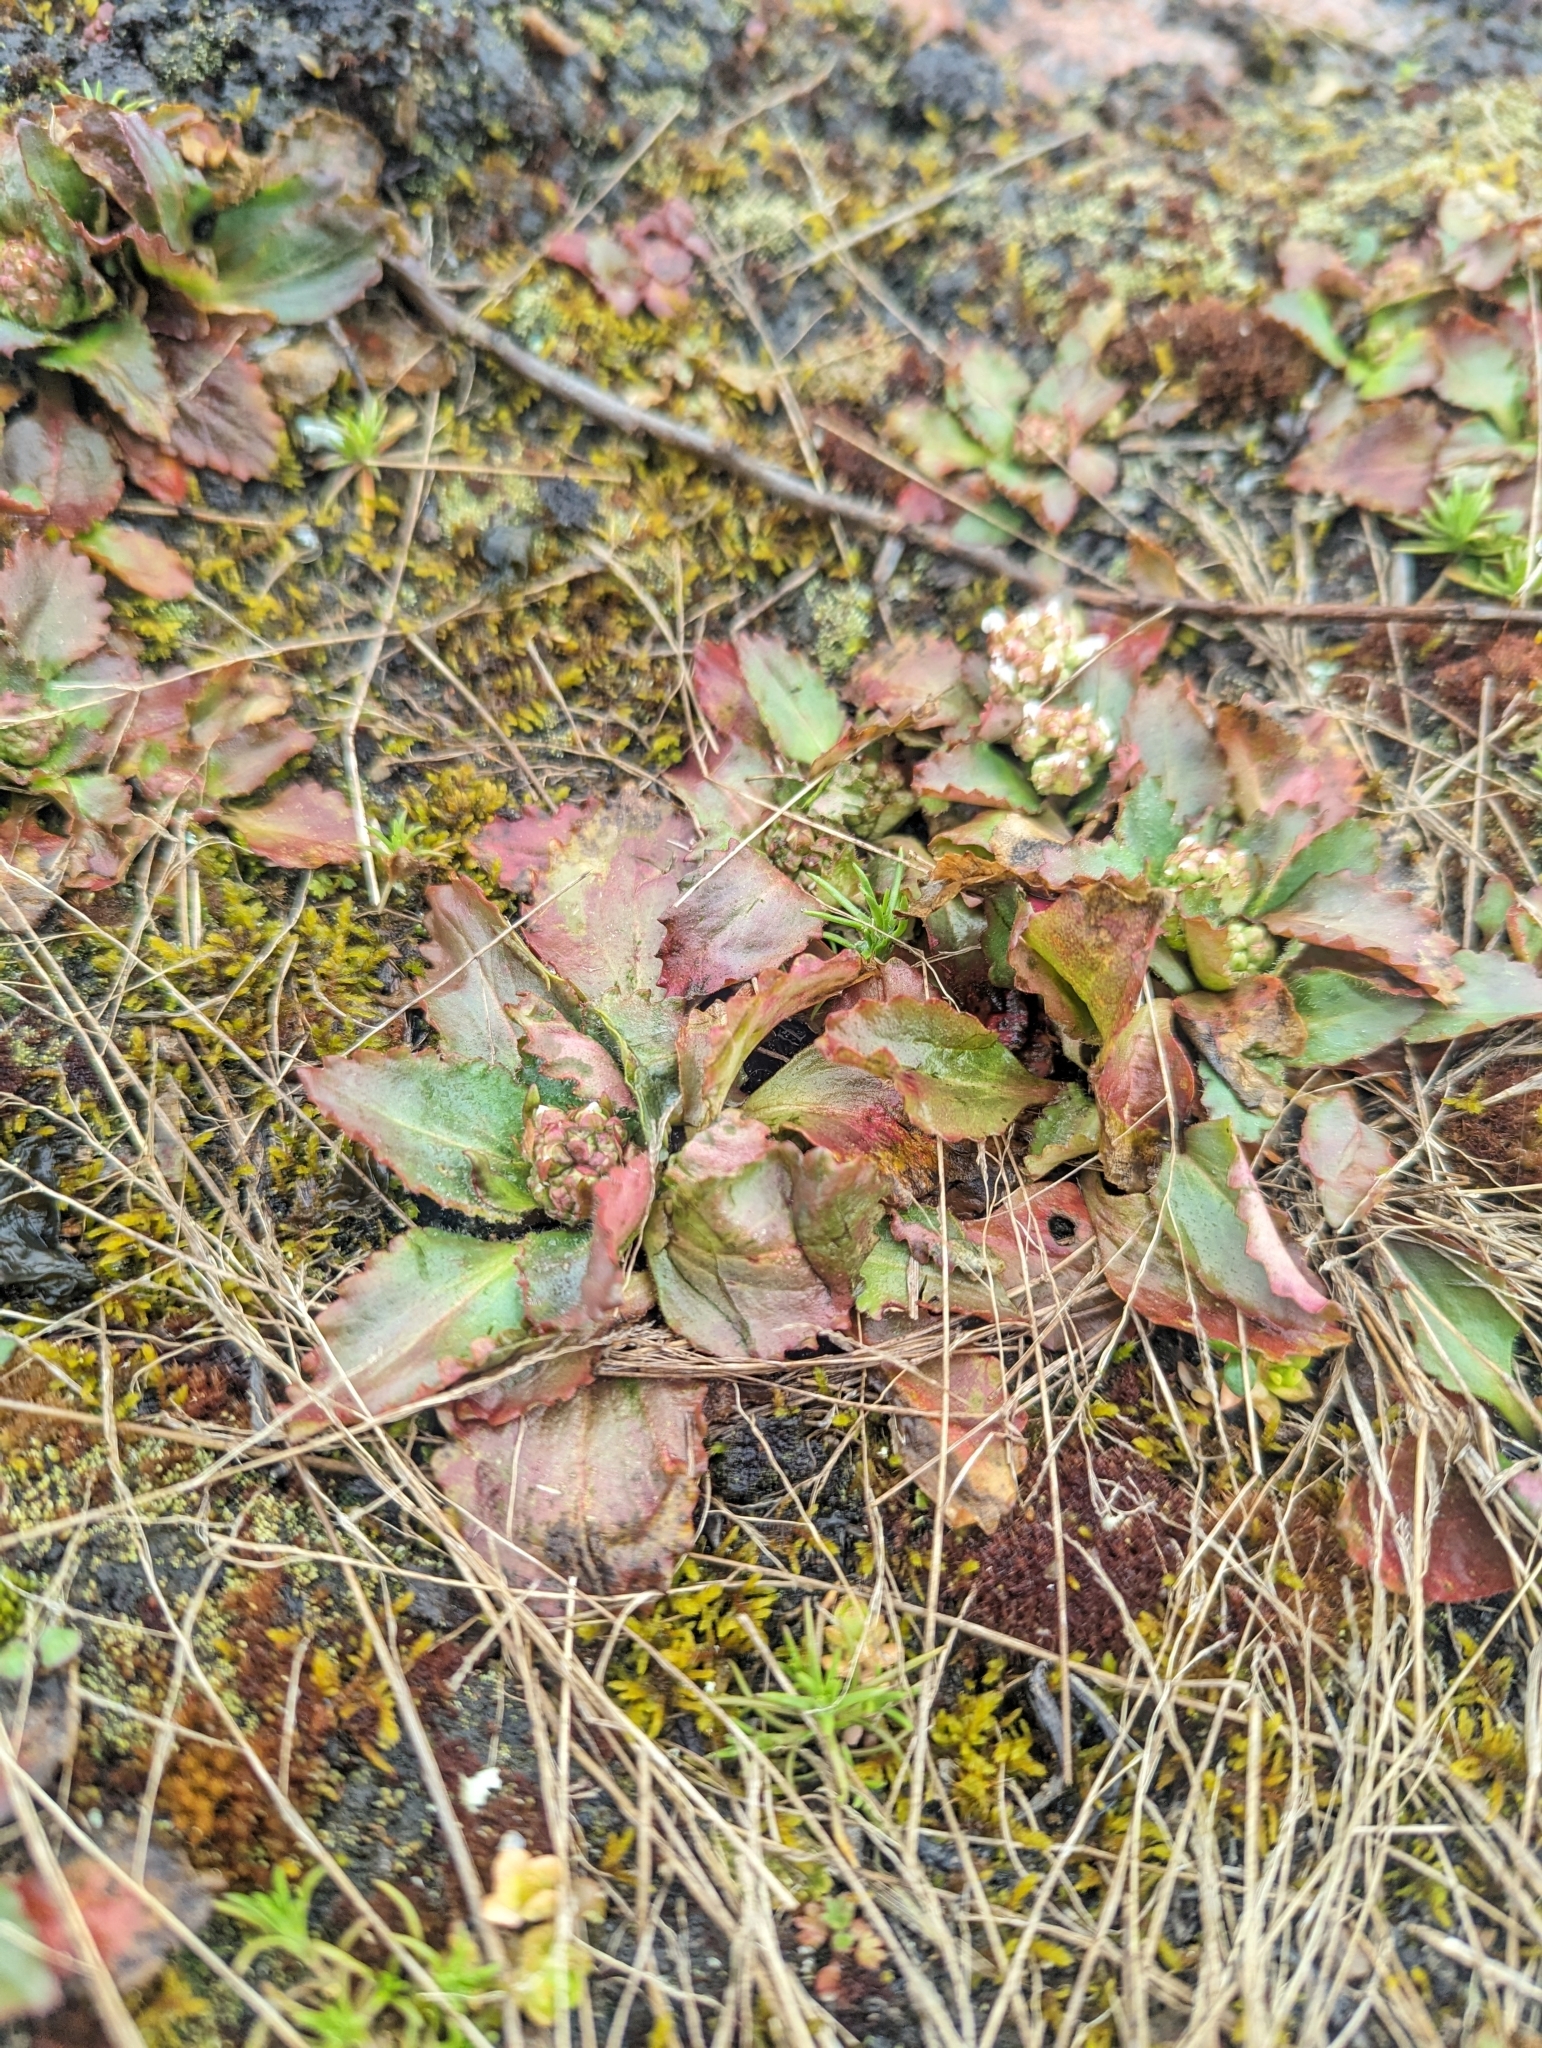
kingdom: Plantae
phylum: Tracheophyta
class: Magnoliopsida
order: Saxifragales
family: Saxifragaceae
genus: Micranthes
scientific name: Micranthes virginiensis
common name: Early saxifrage
